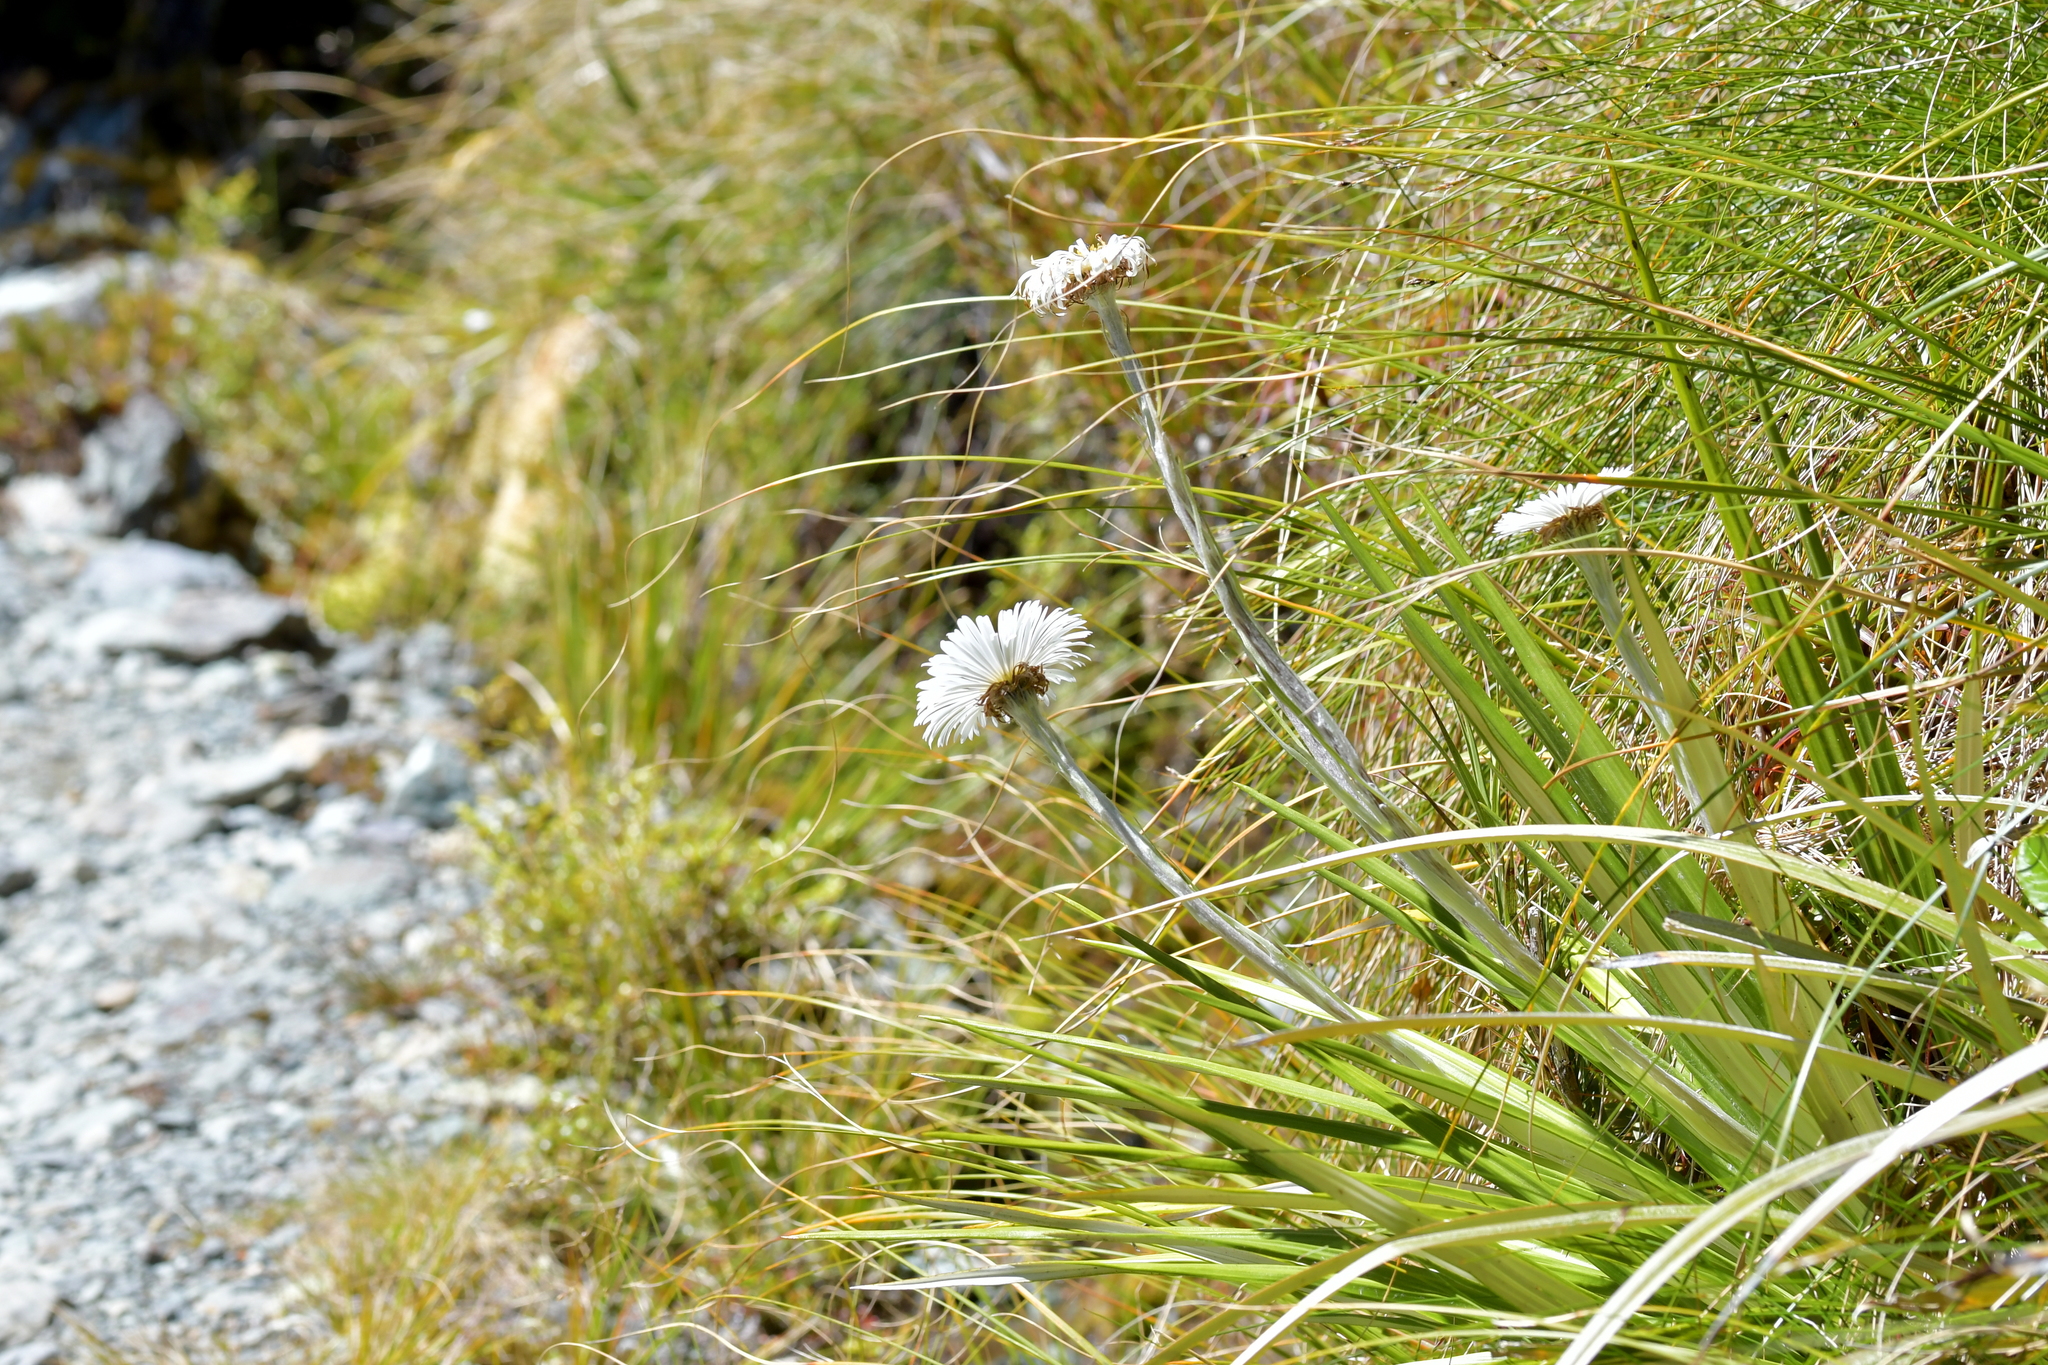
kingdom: Plantae
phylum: Tracheophyta
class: Magnoliopsida
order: Asterales
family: Asteraceae
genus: Celmisia
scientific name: Celmisia petriei
